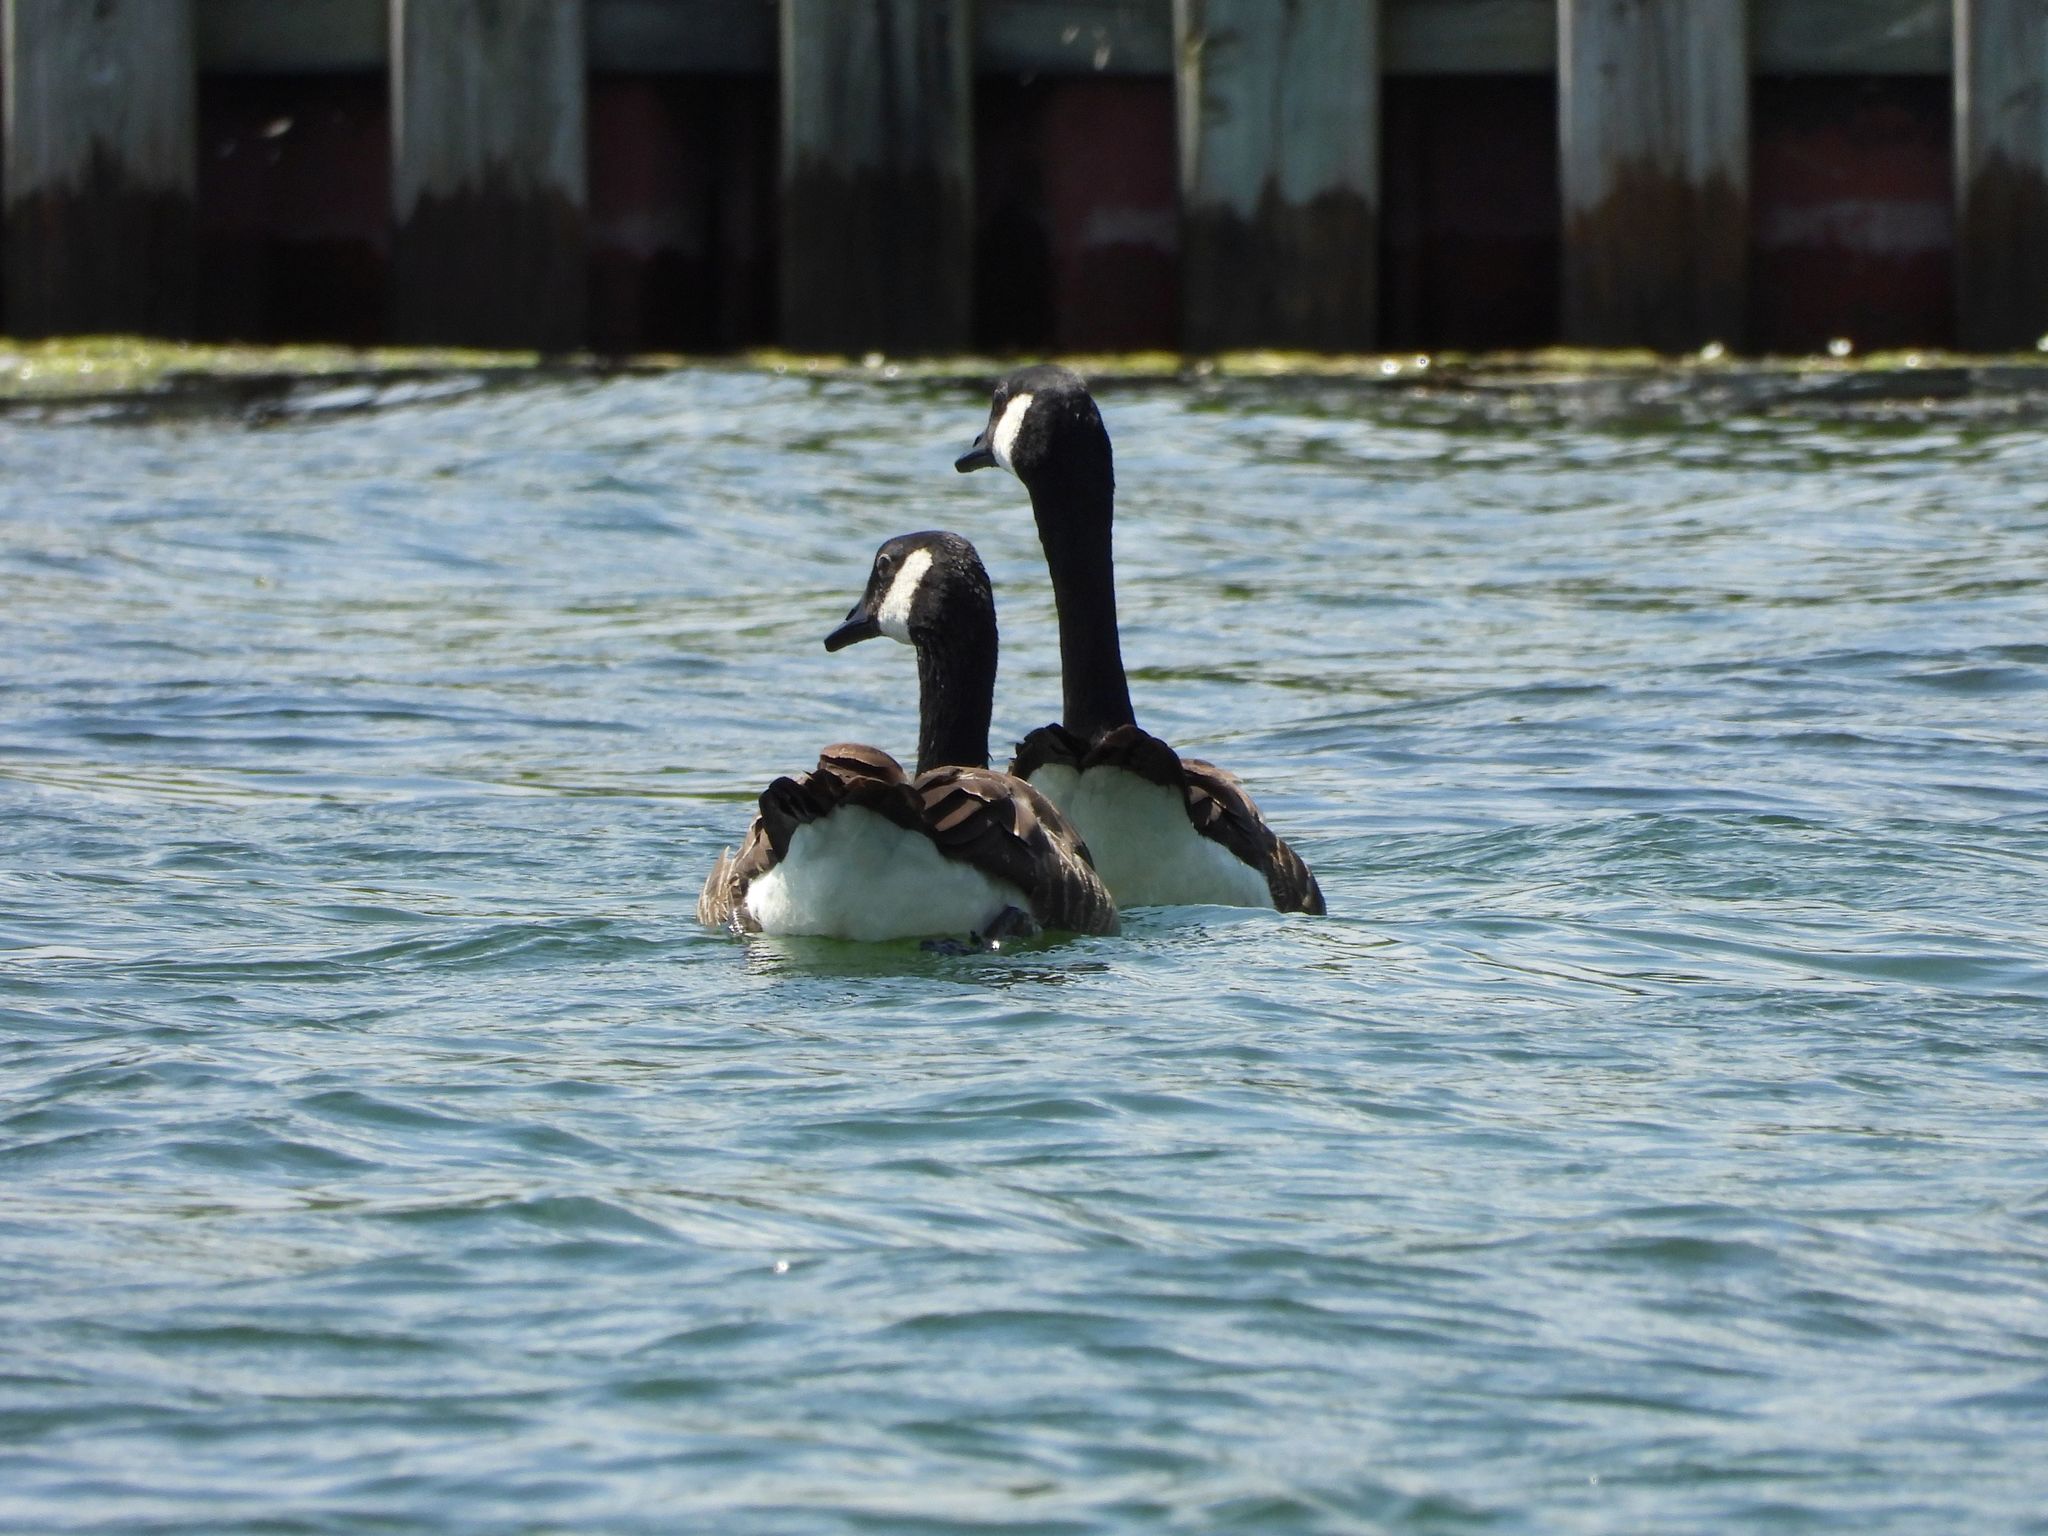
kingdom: Animalia
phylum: Chordata
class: Aves
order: Anseriformes
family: Anatidae
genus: Branta
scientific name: Branta canadensis
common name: Canada goose
